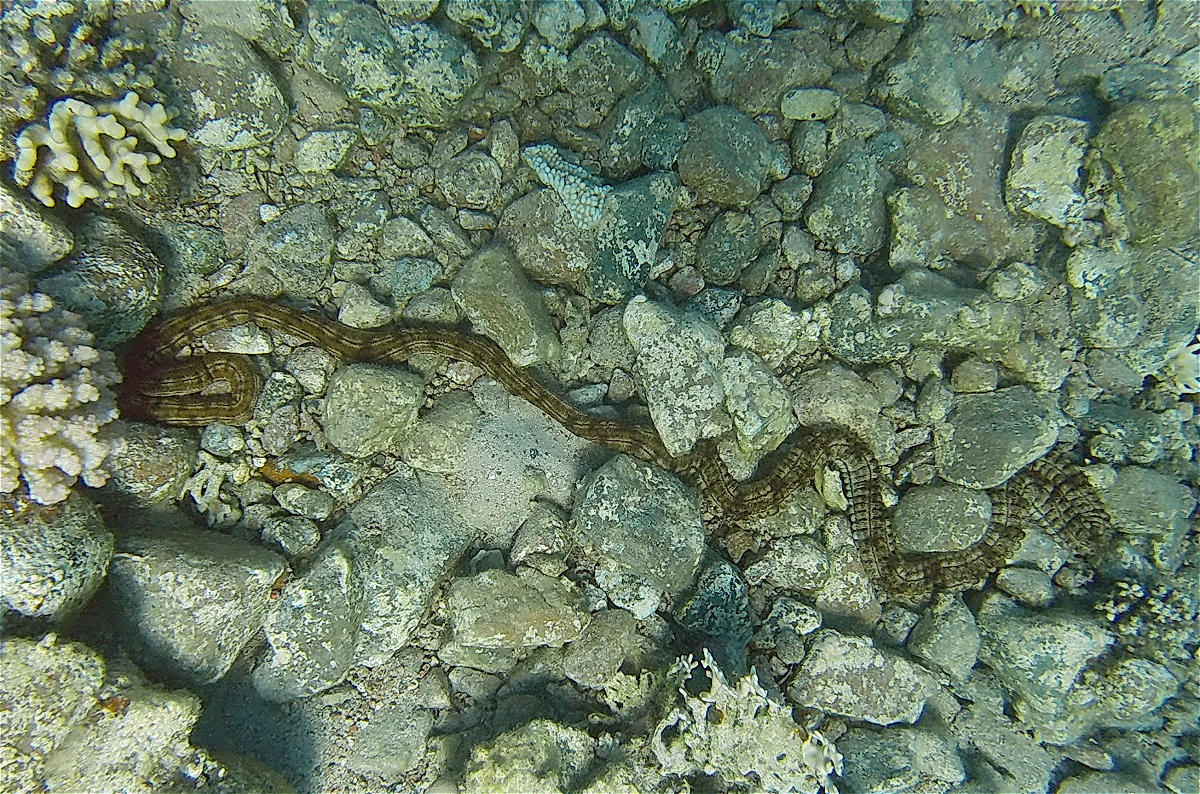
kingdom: Animalia
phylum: Echinodermata
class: Holothuroidea
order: Apodida
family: Synaptidae
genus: Synapta
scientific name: Synapta maculata
